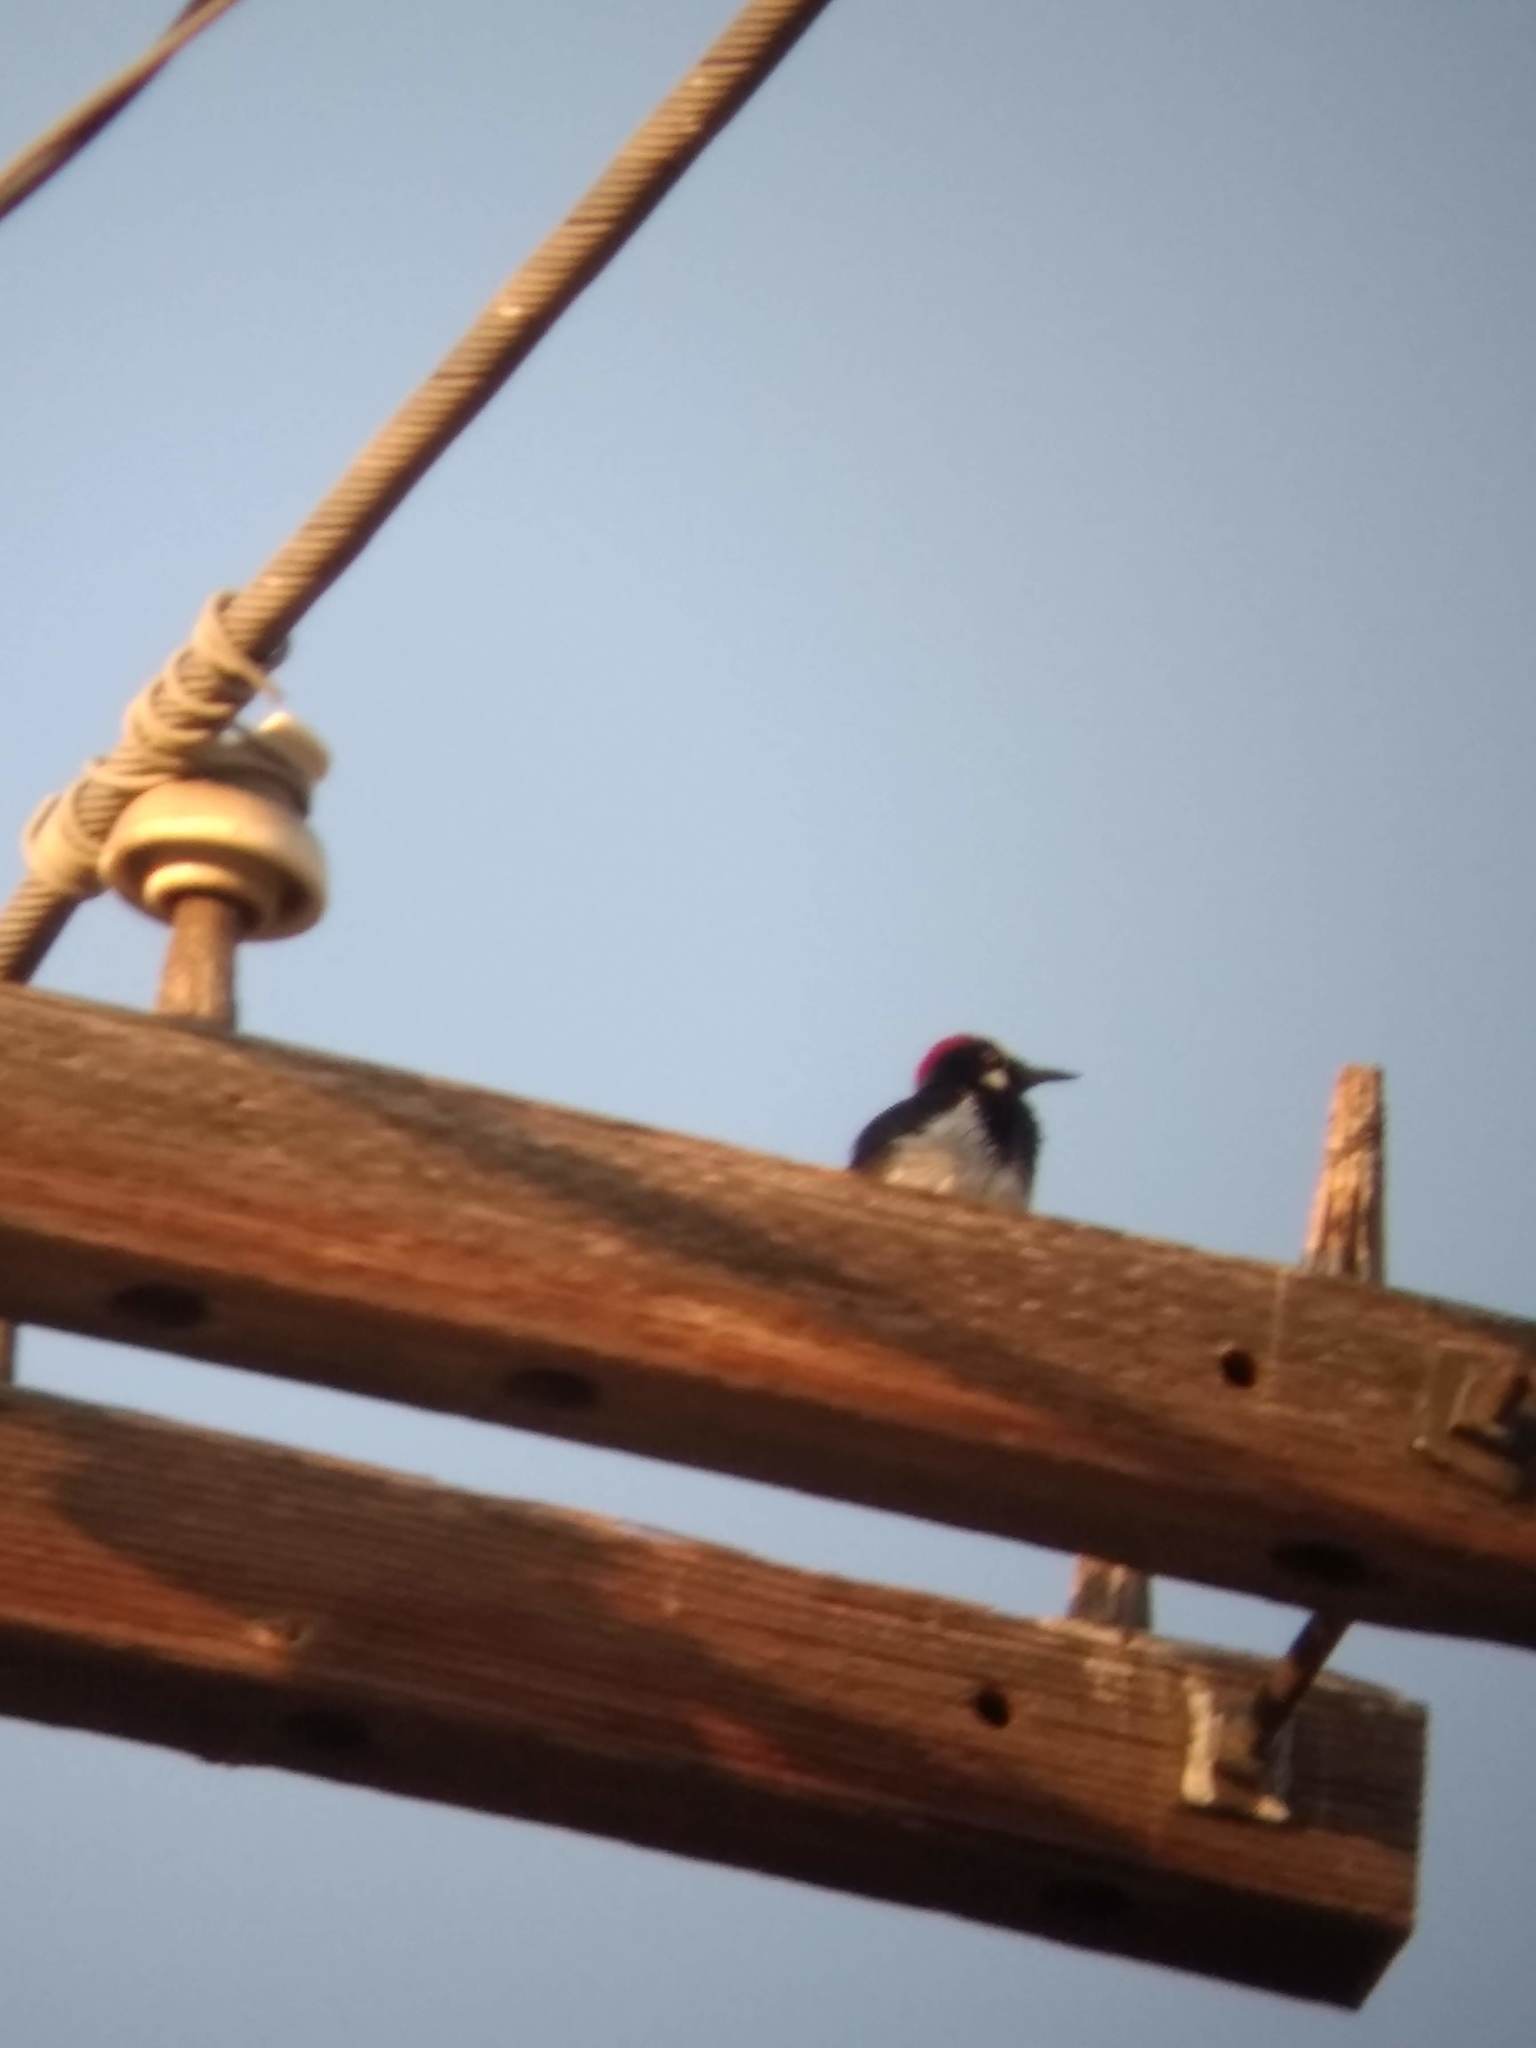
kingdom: Animalia
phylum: Chordata
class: Aves
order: Piciformes
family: Picidae
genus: Melanerpes
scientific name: Melanerpes formicivorus
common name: Acorn woodpecker
